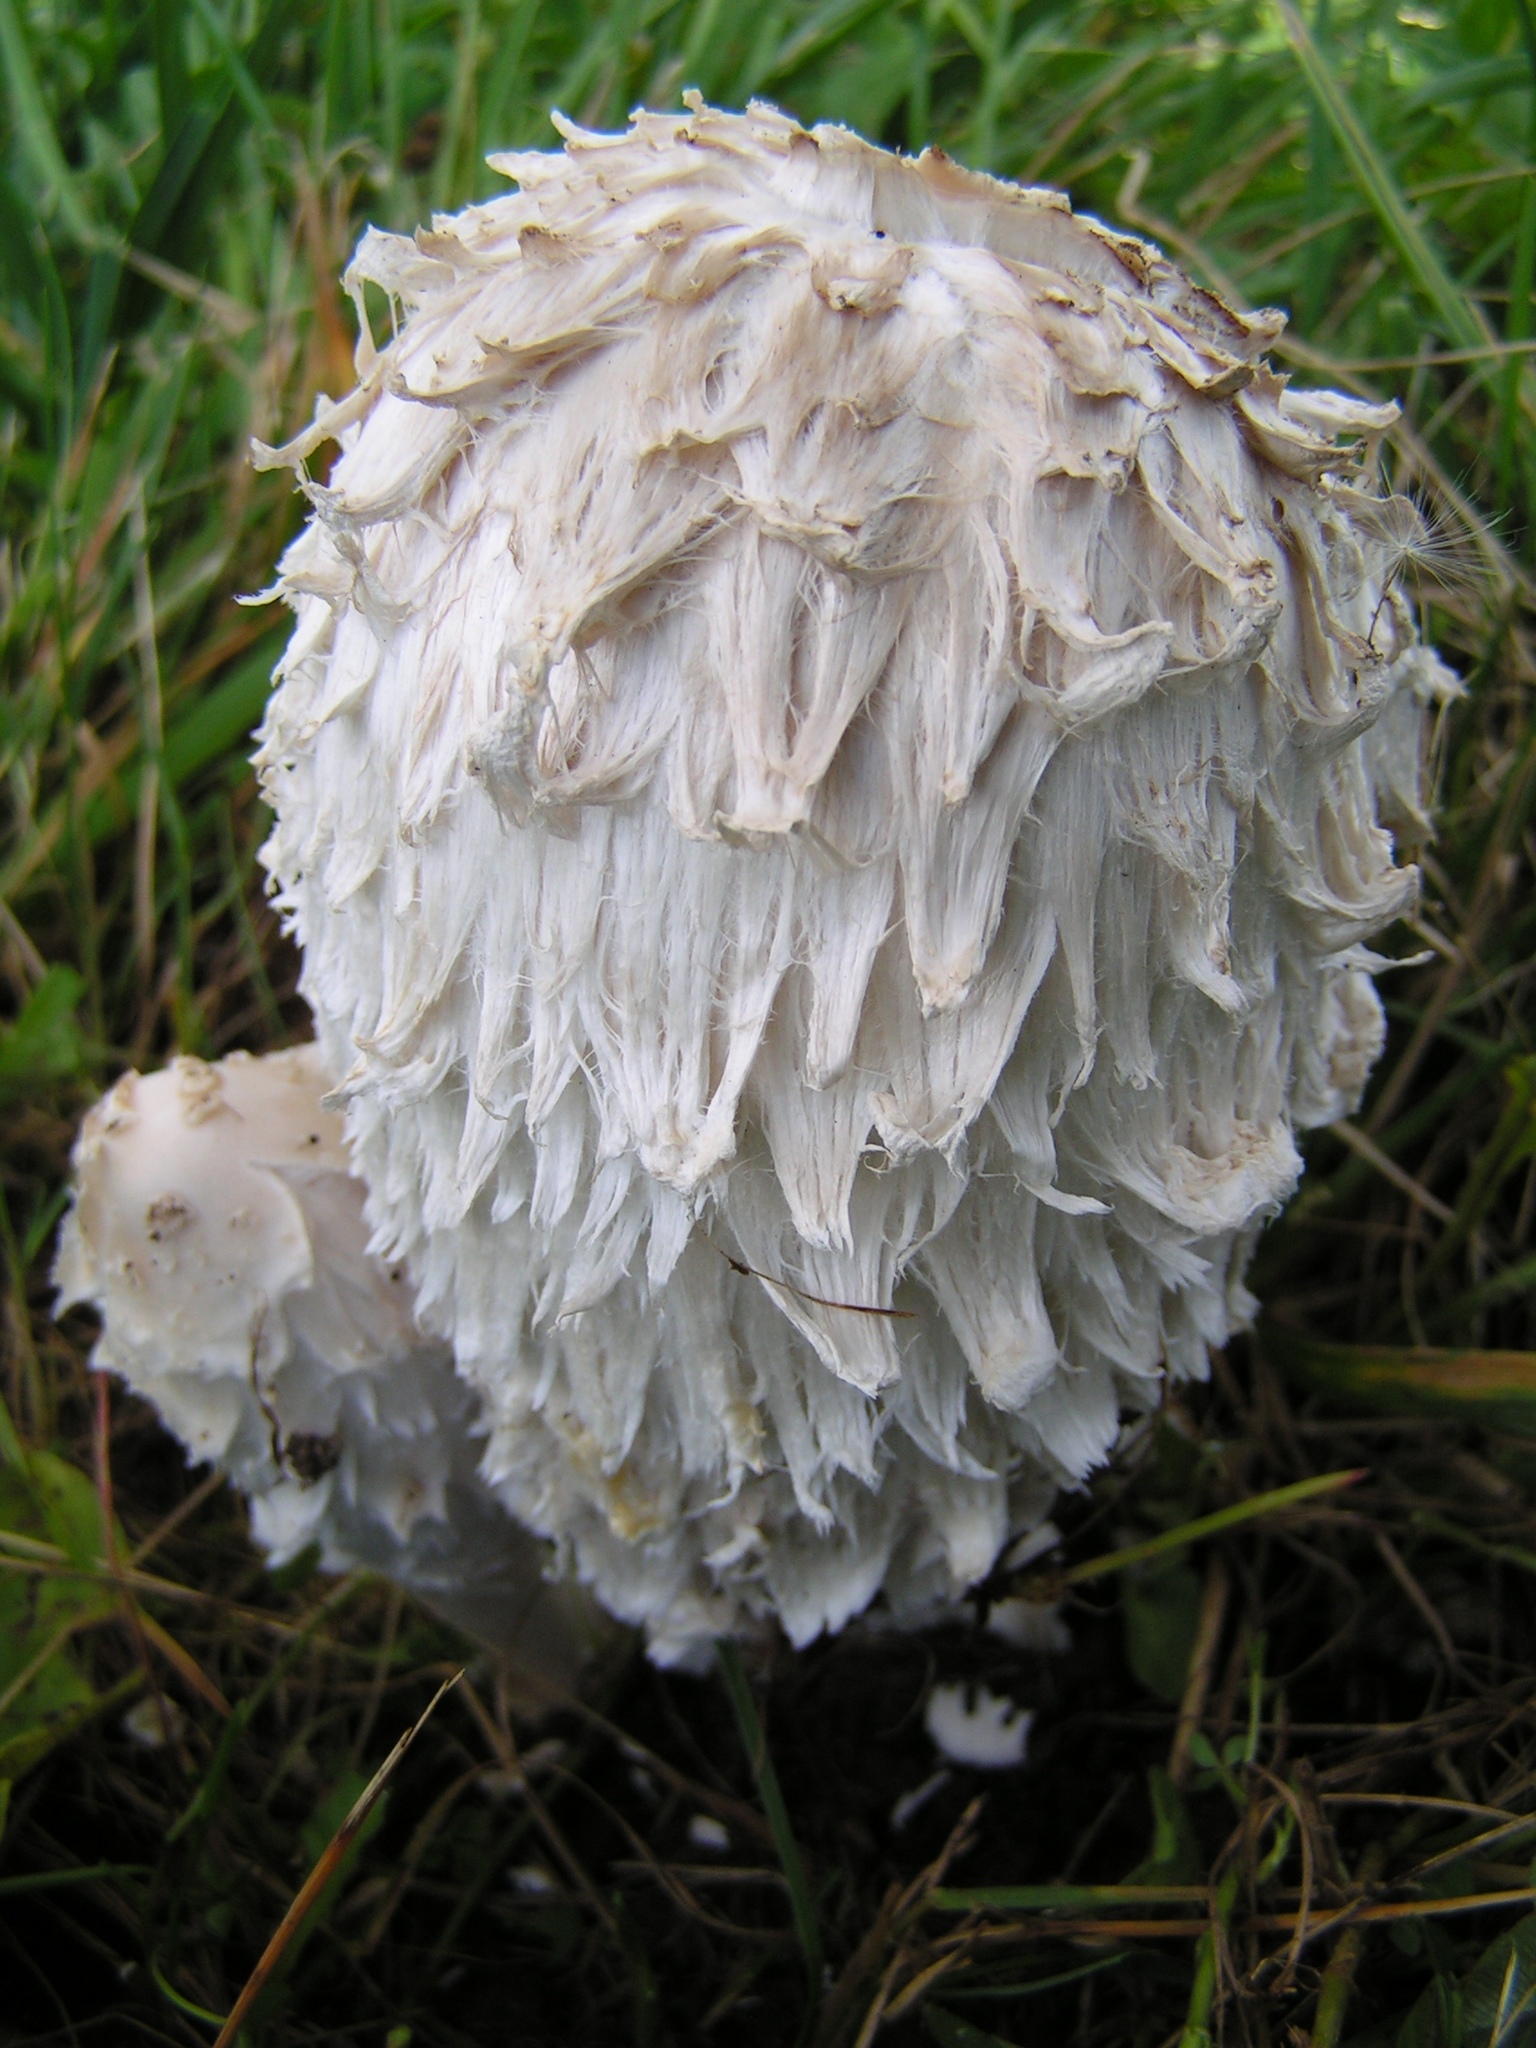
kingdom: Fungi
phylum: Basidiomycota
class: Agaricomycetes
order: Agaricales
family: Agaricaceae
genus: Coprinus
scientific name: Coprinus comatus
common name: Lawyer's wig
